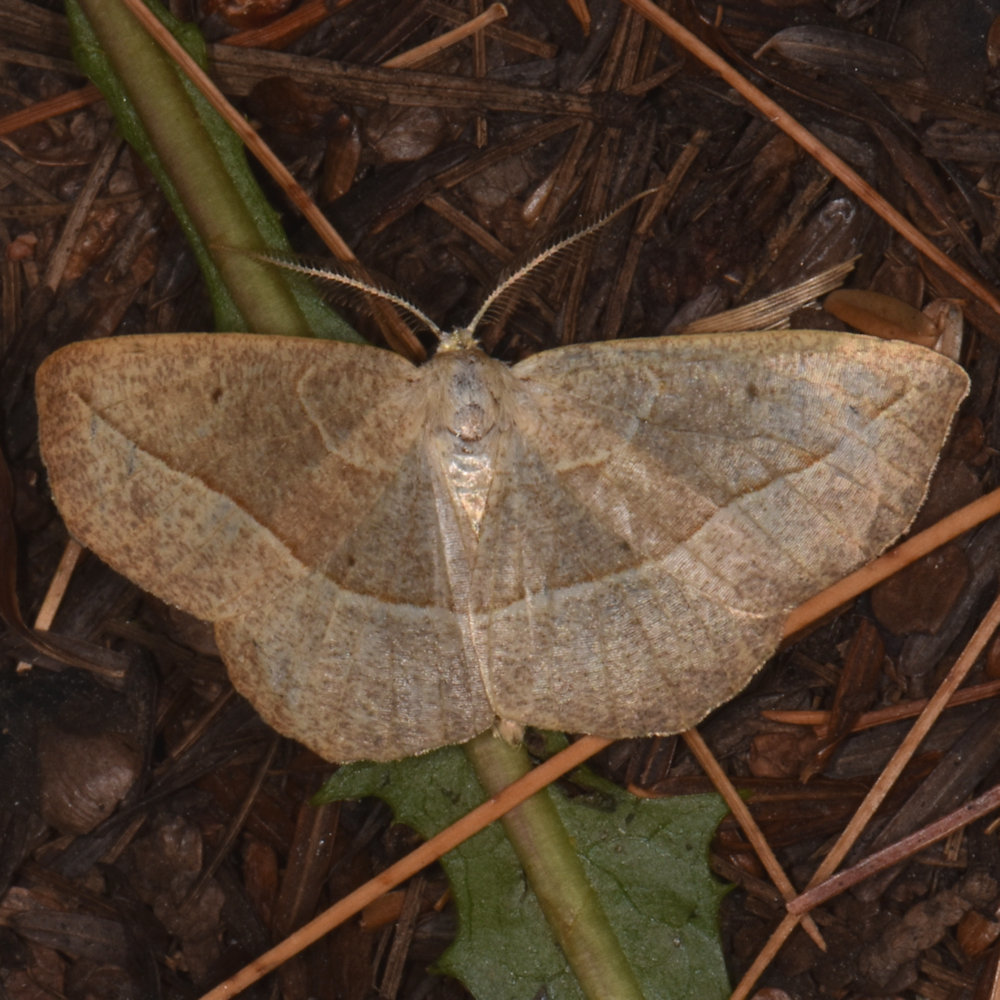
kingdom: Animalia
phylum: Arthropoda
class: Insecta
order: Lepidoptera
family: Geometridae
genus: Eusarca
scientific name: Eusarca confusaria
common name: Confused eusarca
